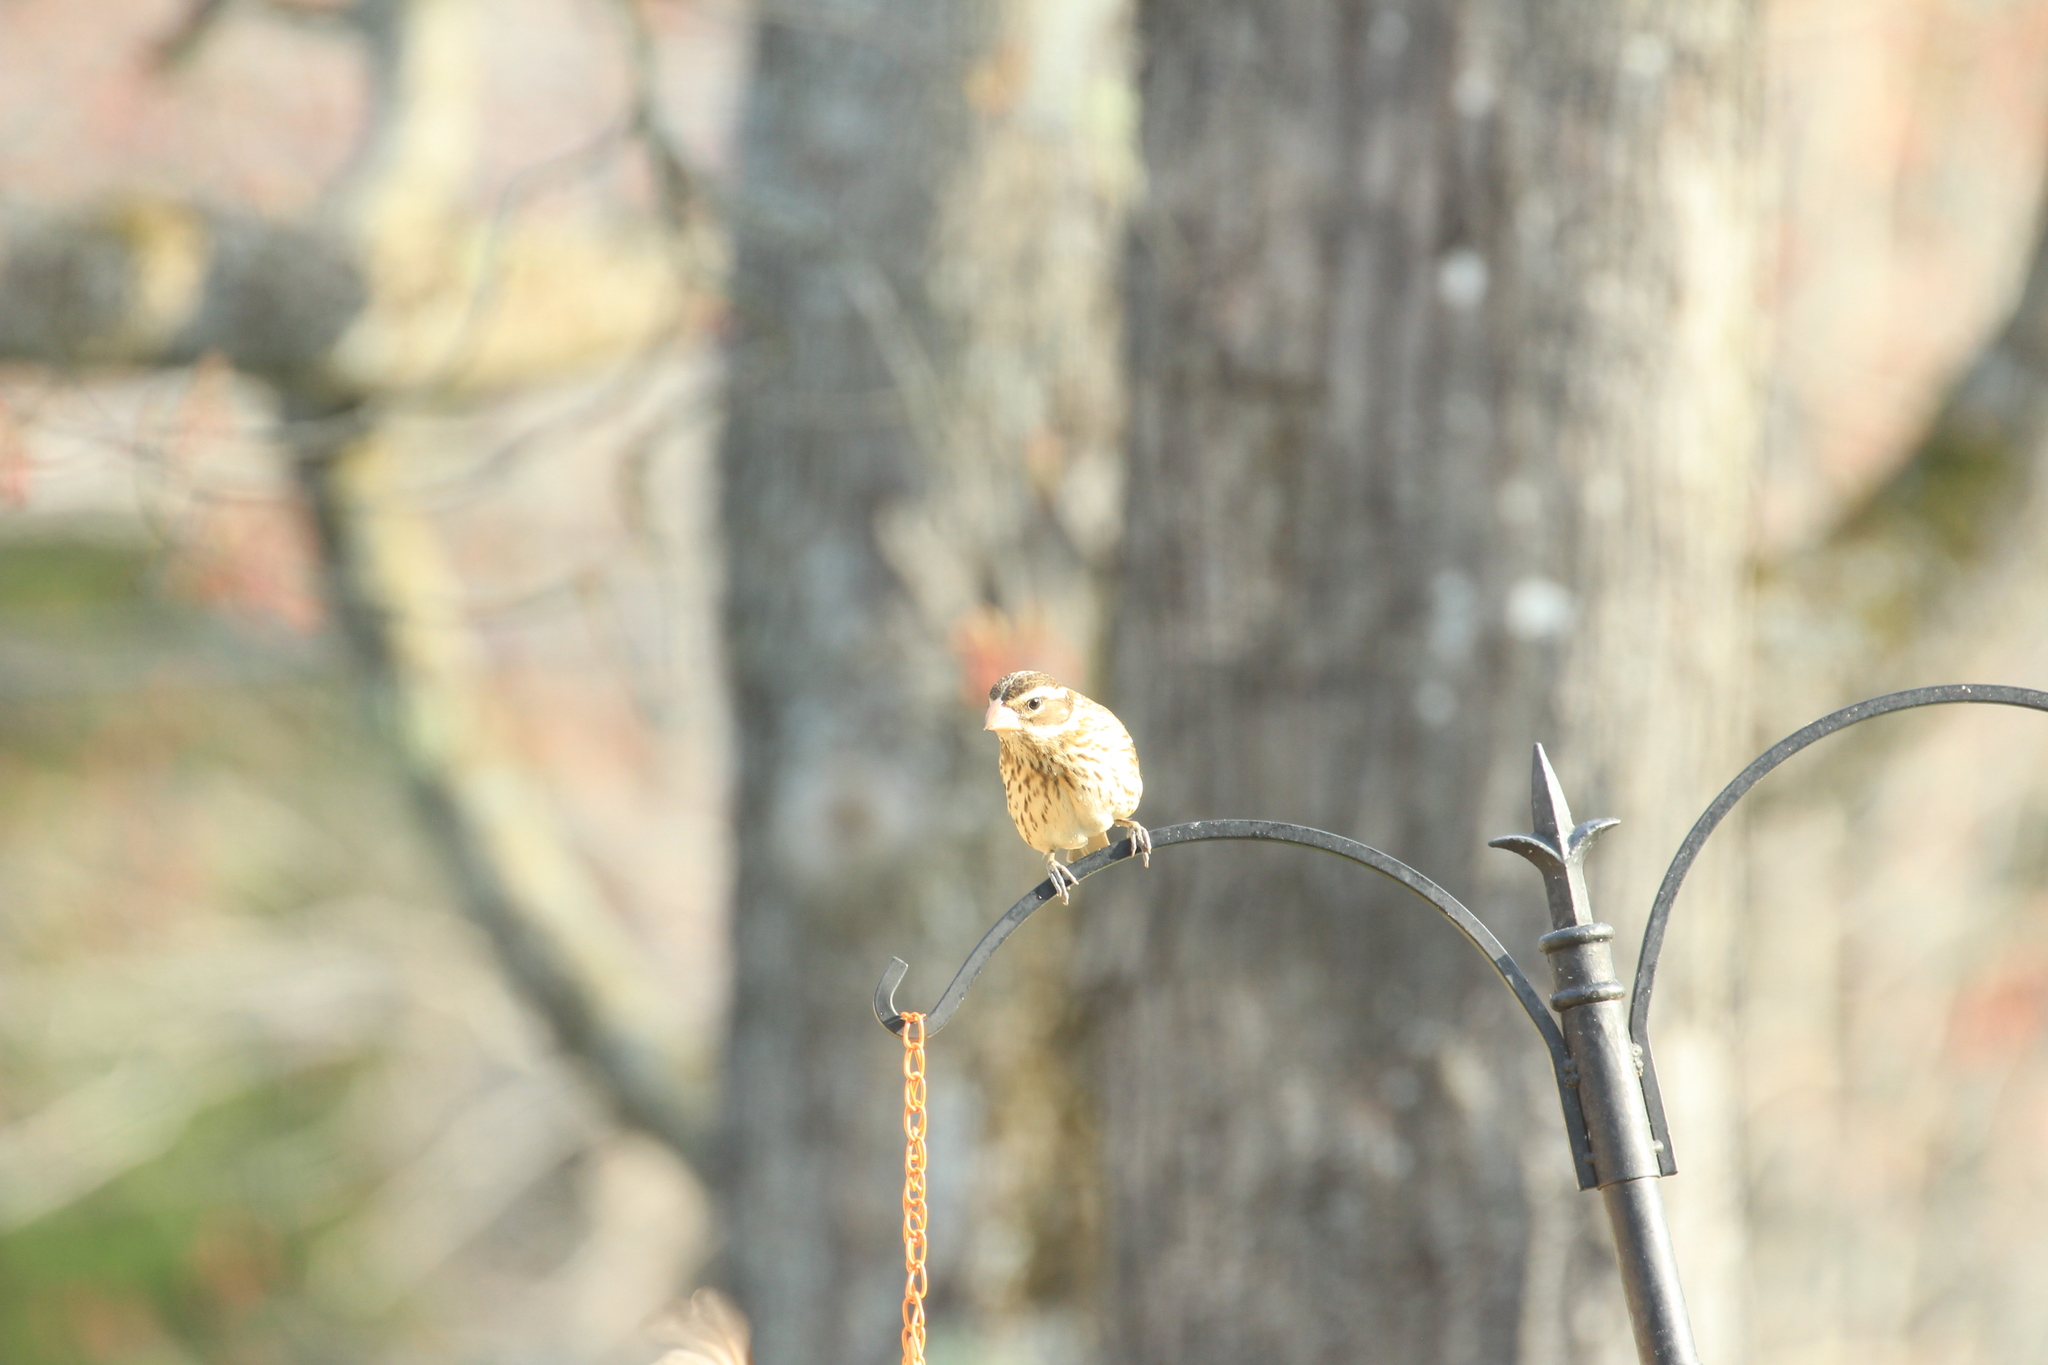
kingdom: Animalia
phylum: Chordata
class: Aves
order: Passeriformes
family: Cardinalidae
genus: Pheucticus
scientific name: Pheucticus ludovicianus
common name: Rose-breasted grosbeak
